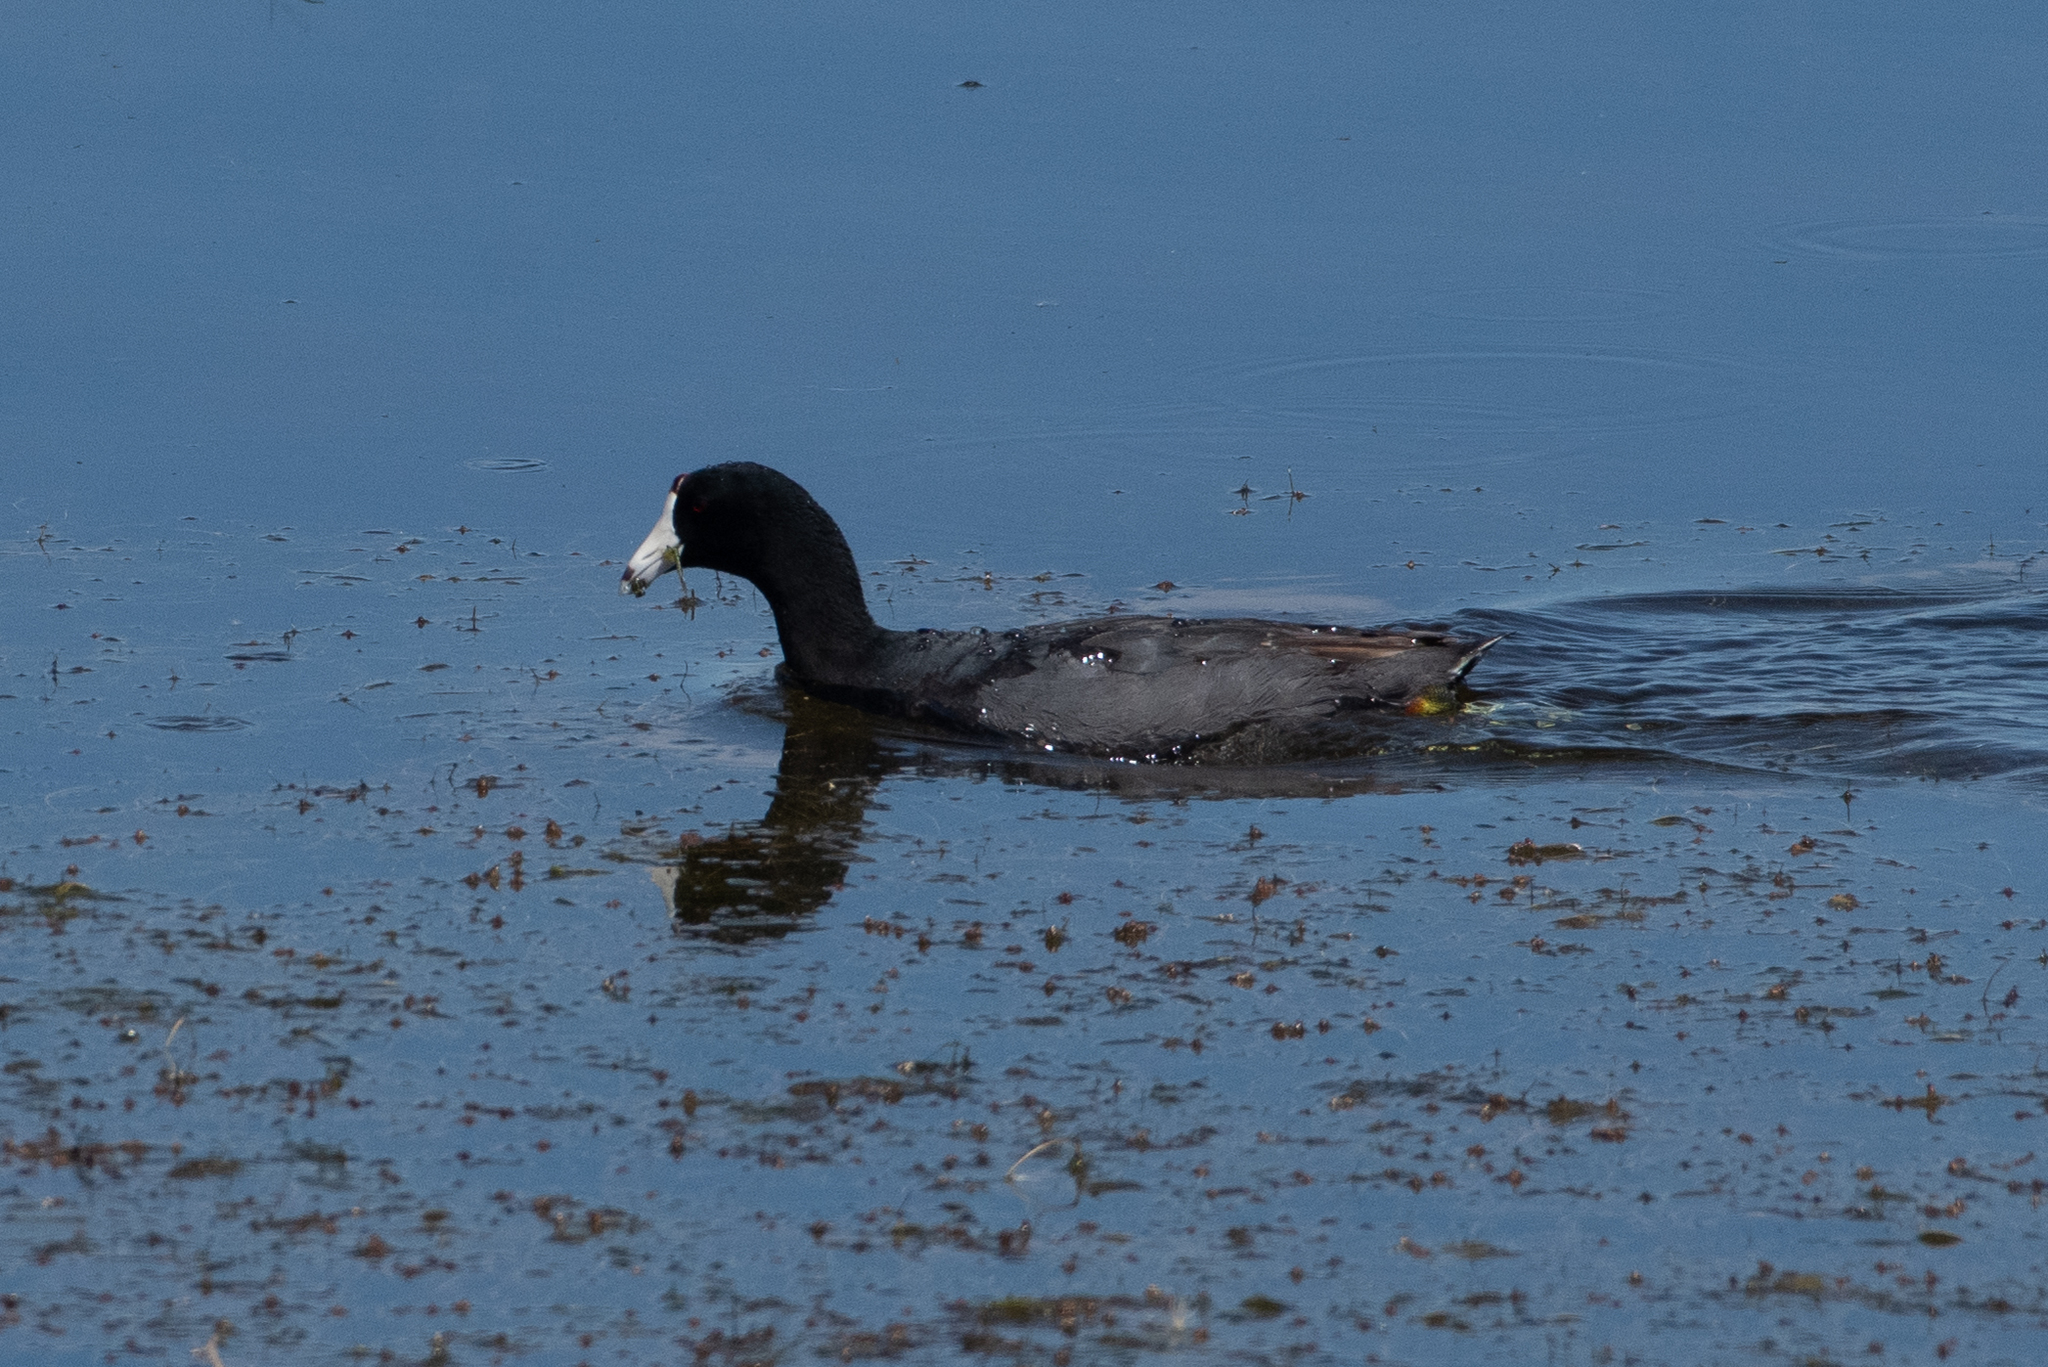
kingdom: Animalia
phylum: Chordata
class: Aves
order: Gruiformes
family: Rallidae
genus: Fulica
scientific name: Fulica americana
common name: American coot
